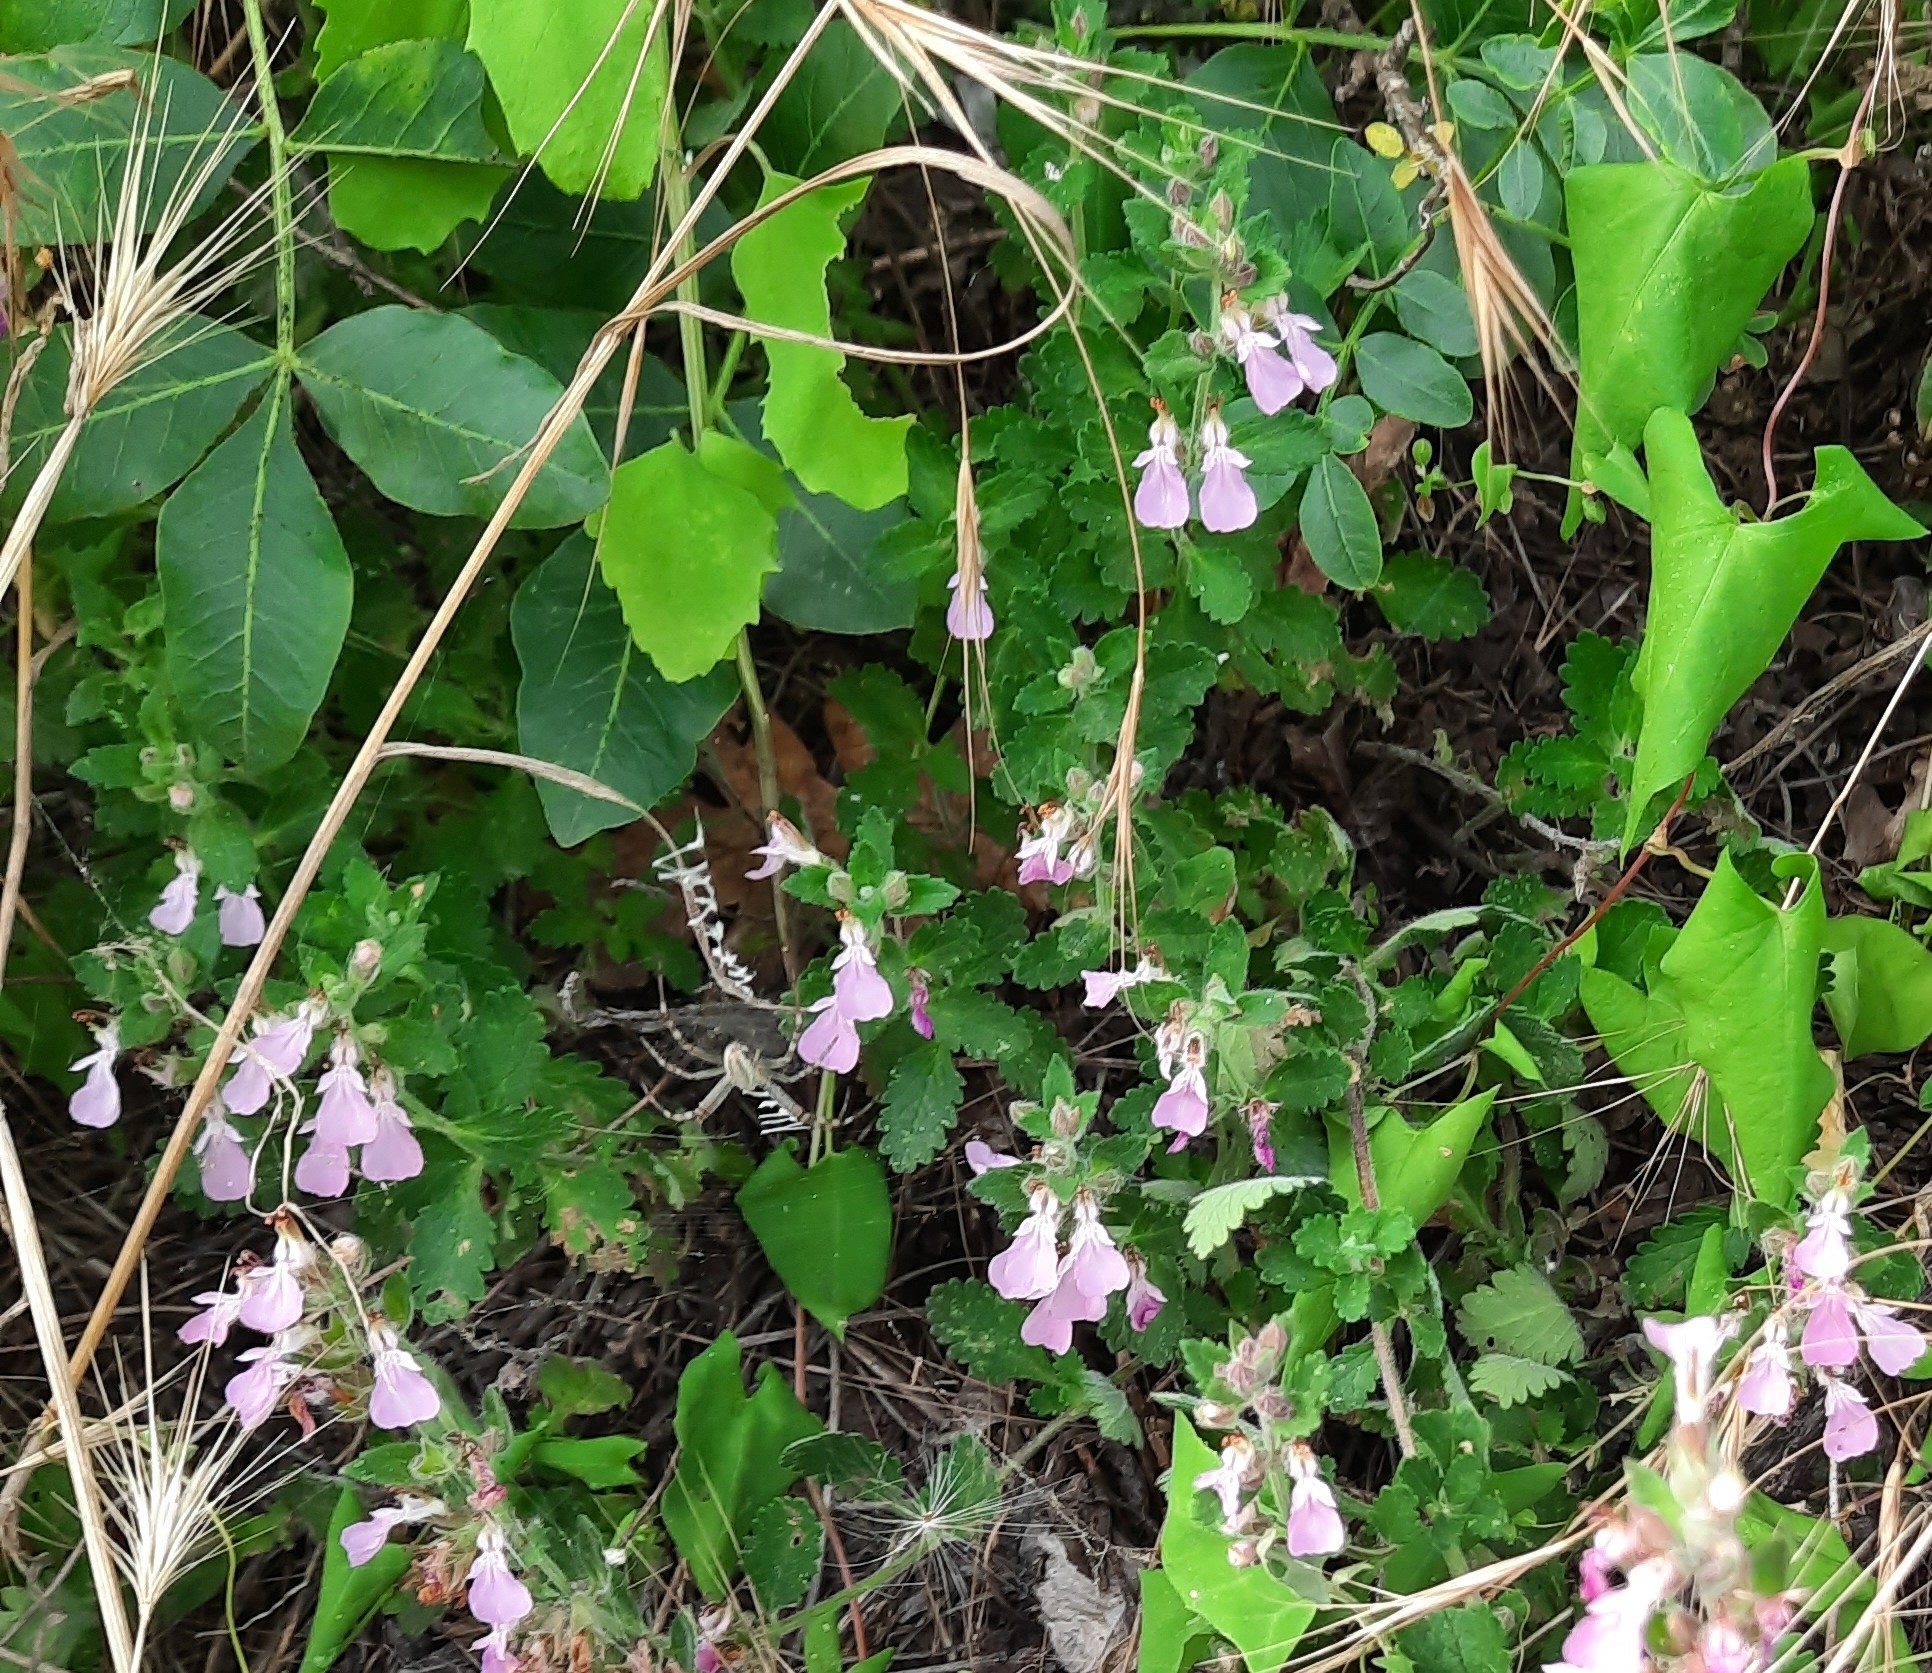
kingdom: Plantae
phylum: Tracheophyta
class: Magnoliopsida
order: Lamiales
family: Lamiaceae
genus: Teucrium
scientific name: Teucrium chamaedrys
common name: Wall germander
